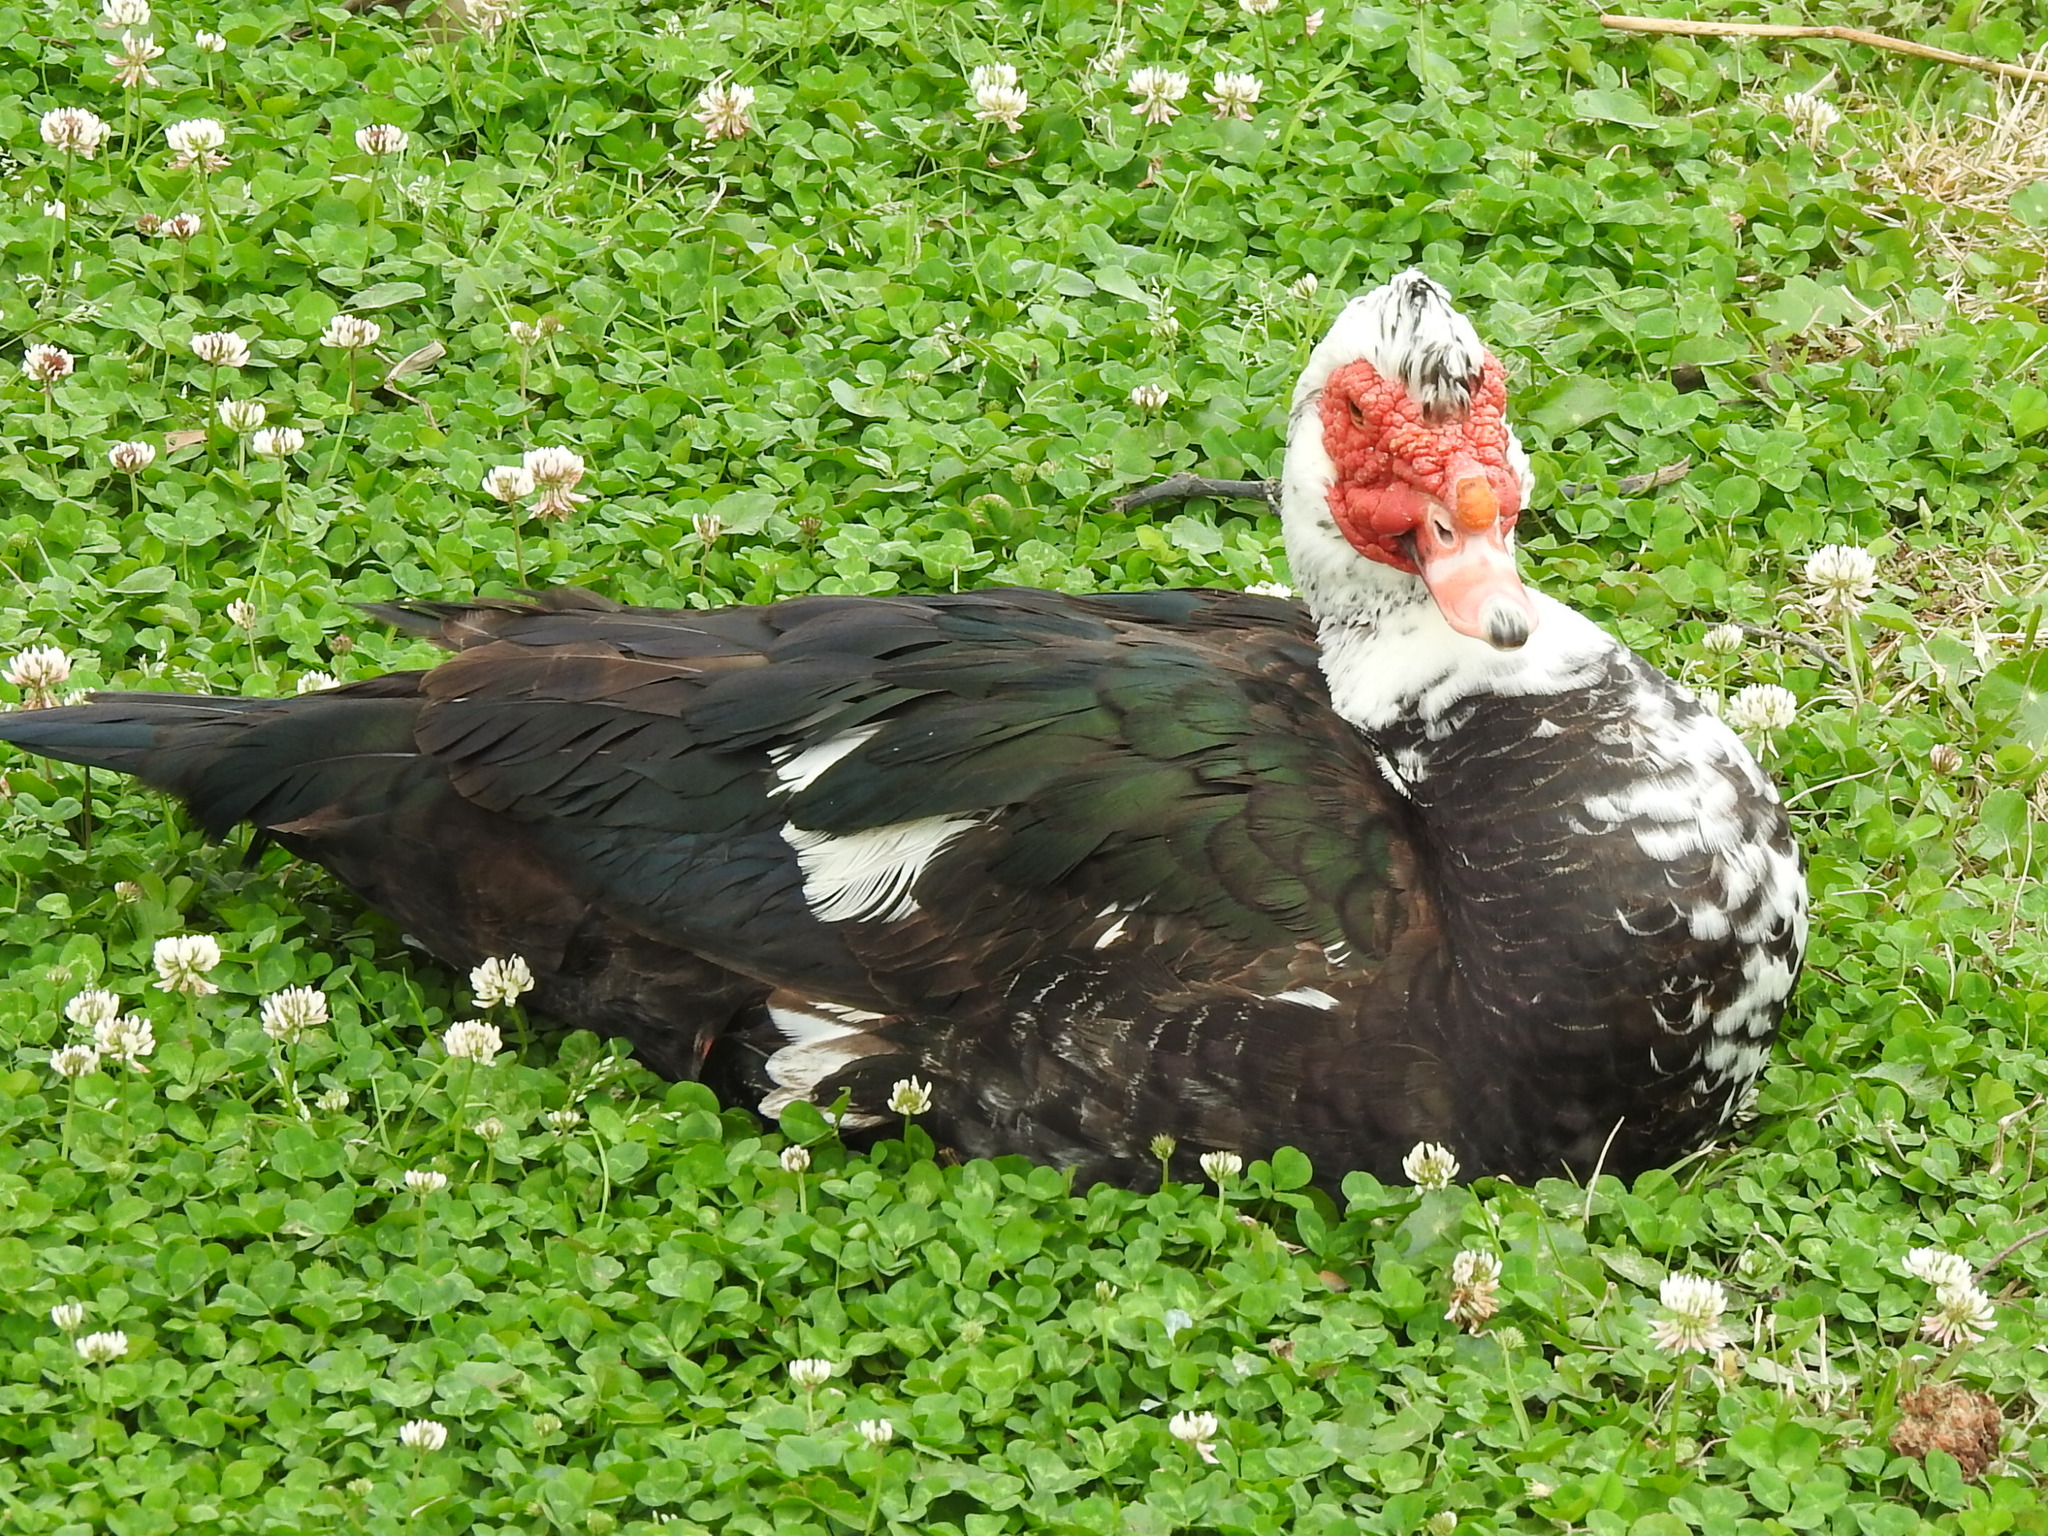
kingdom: Animalia
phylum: Chordata
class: Aves
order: Anseriformes
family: Anatidae
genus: Cairina
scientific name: Cairina moschata
